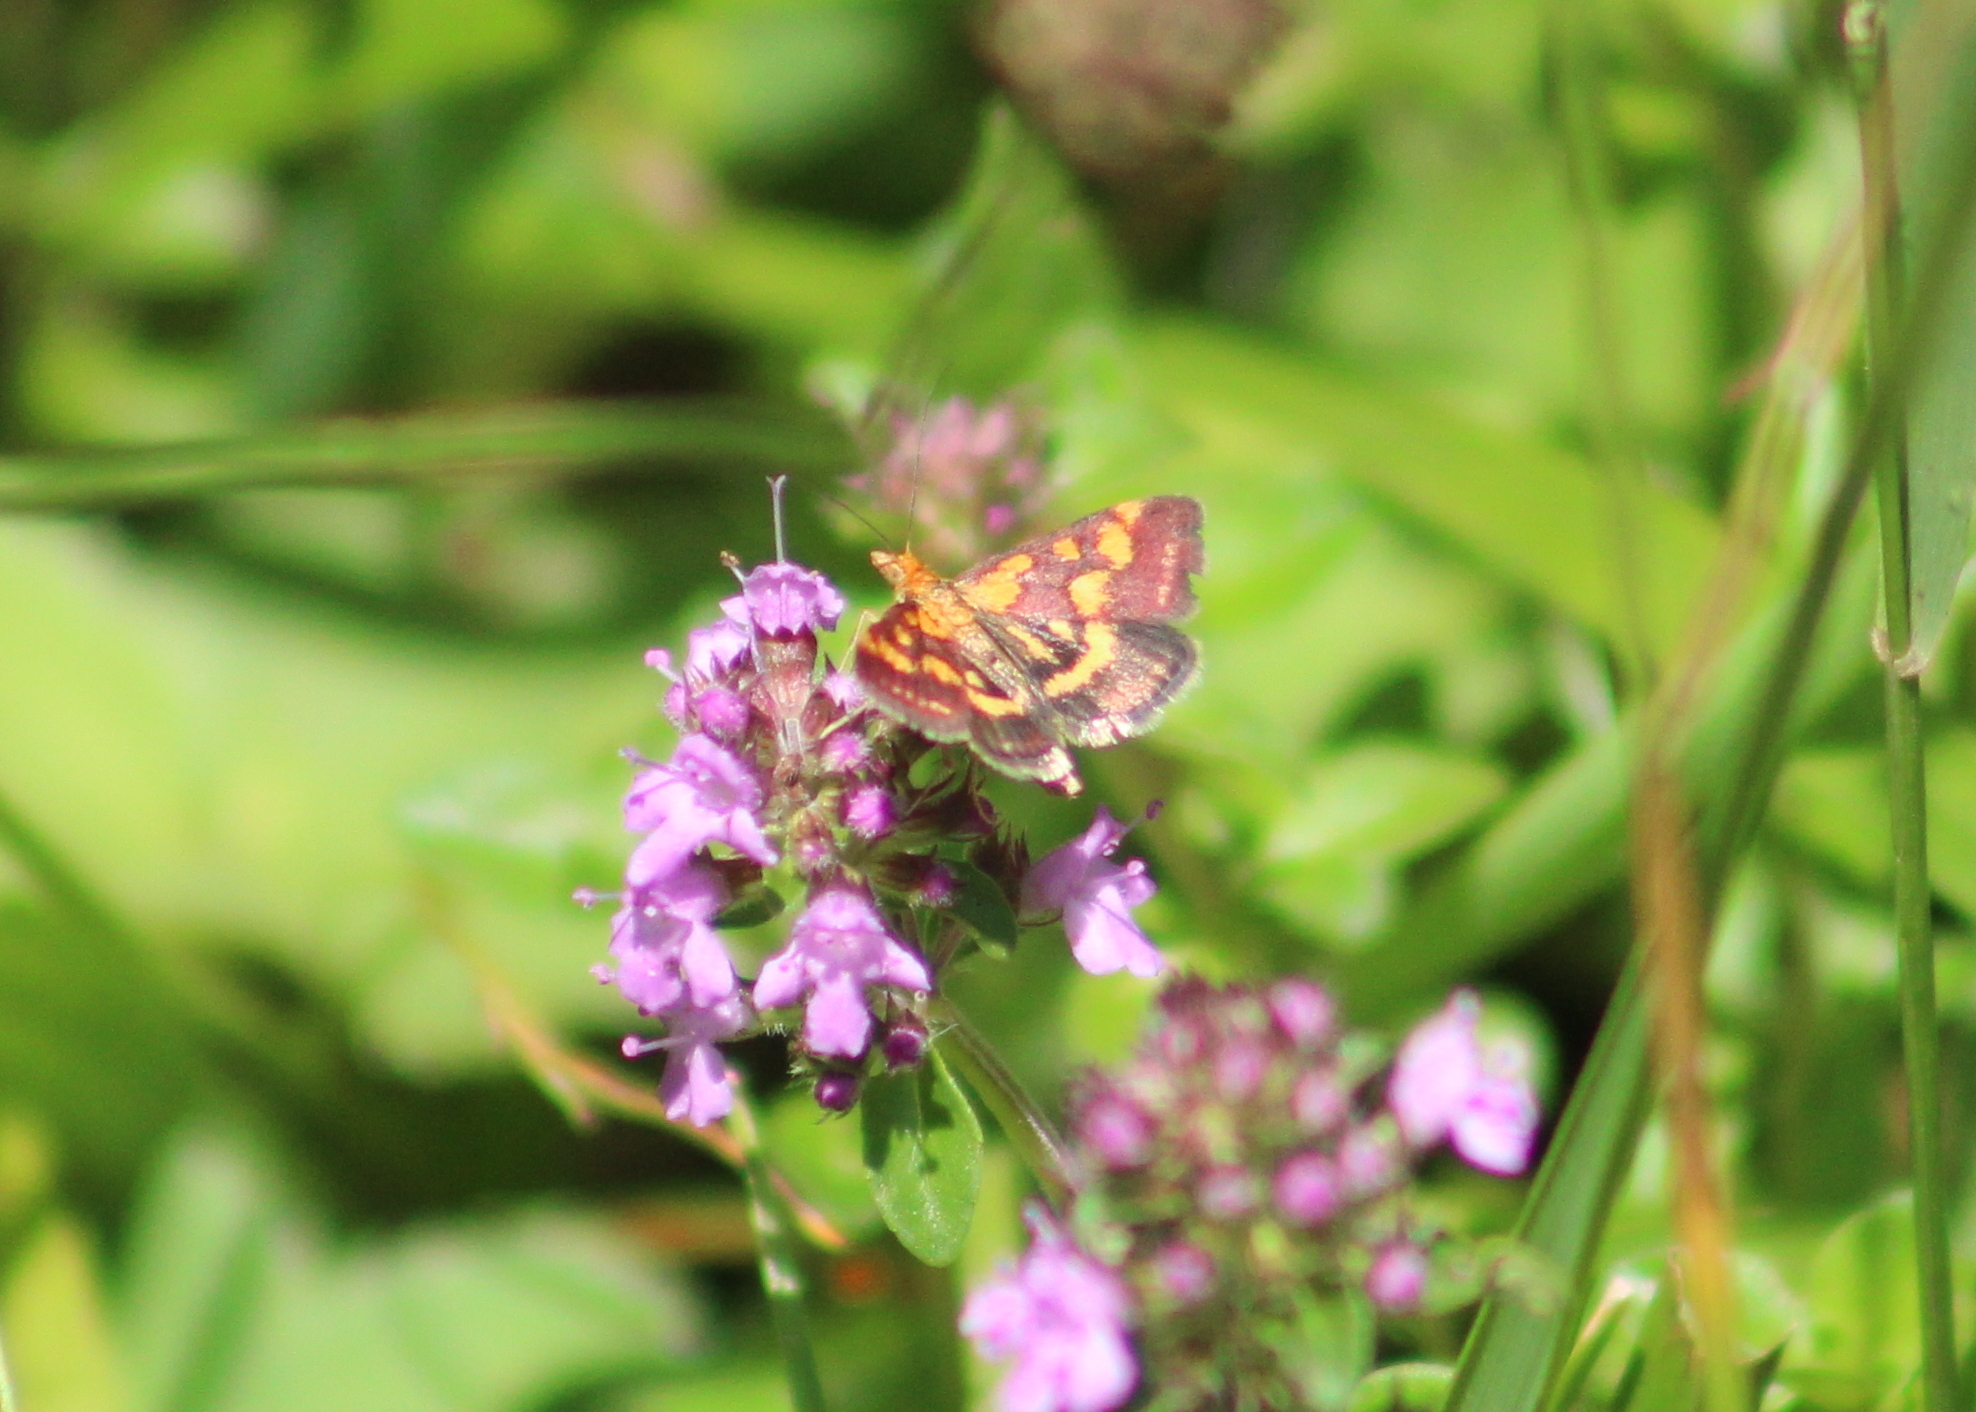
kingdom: Animalia
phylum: Arthropoda
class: Insecta
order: Lepidoptera
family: Crambidae
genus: Pyrausta
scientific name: Pyrausta purpuralis
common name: Common purple & gold
